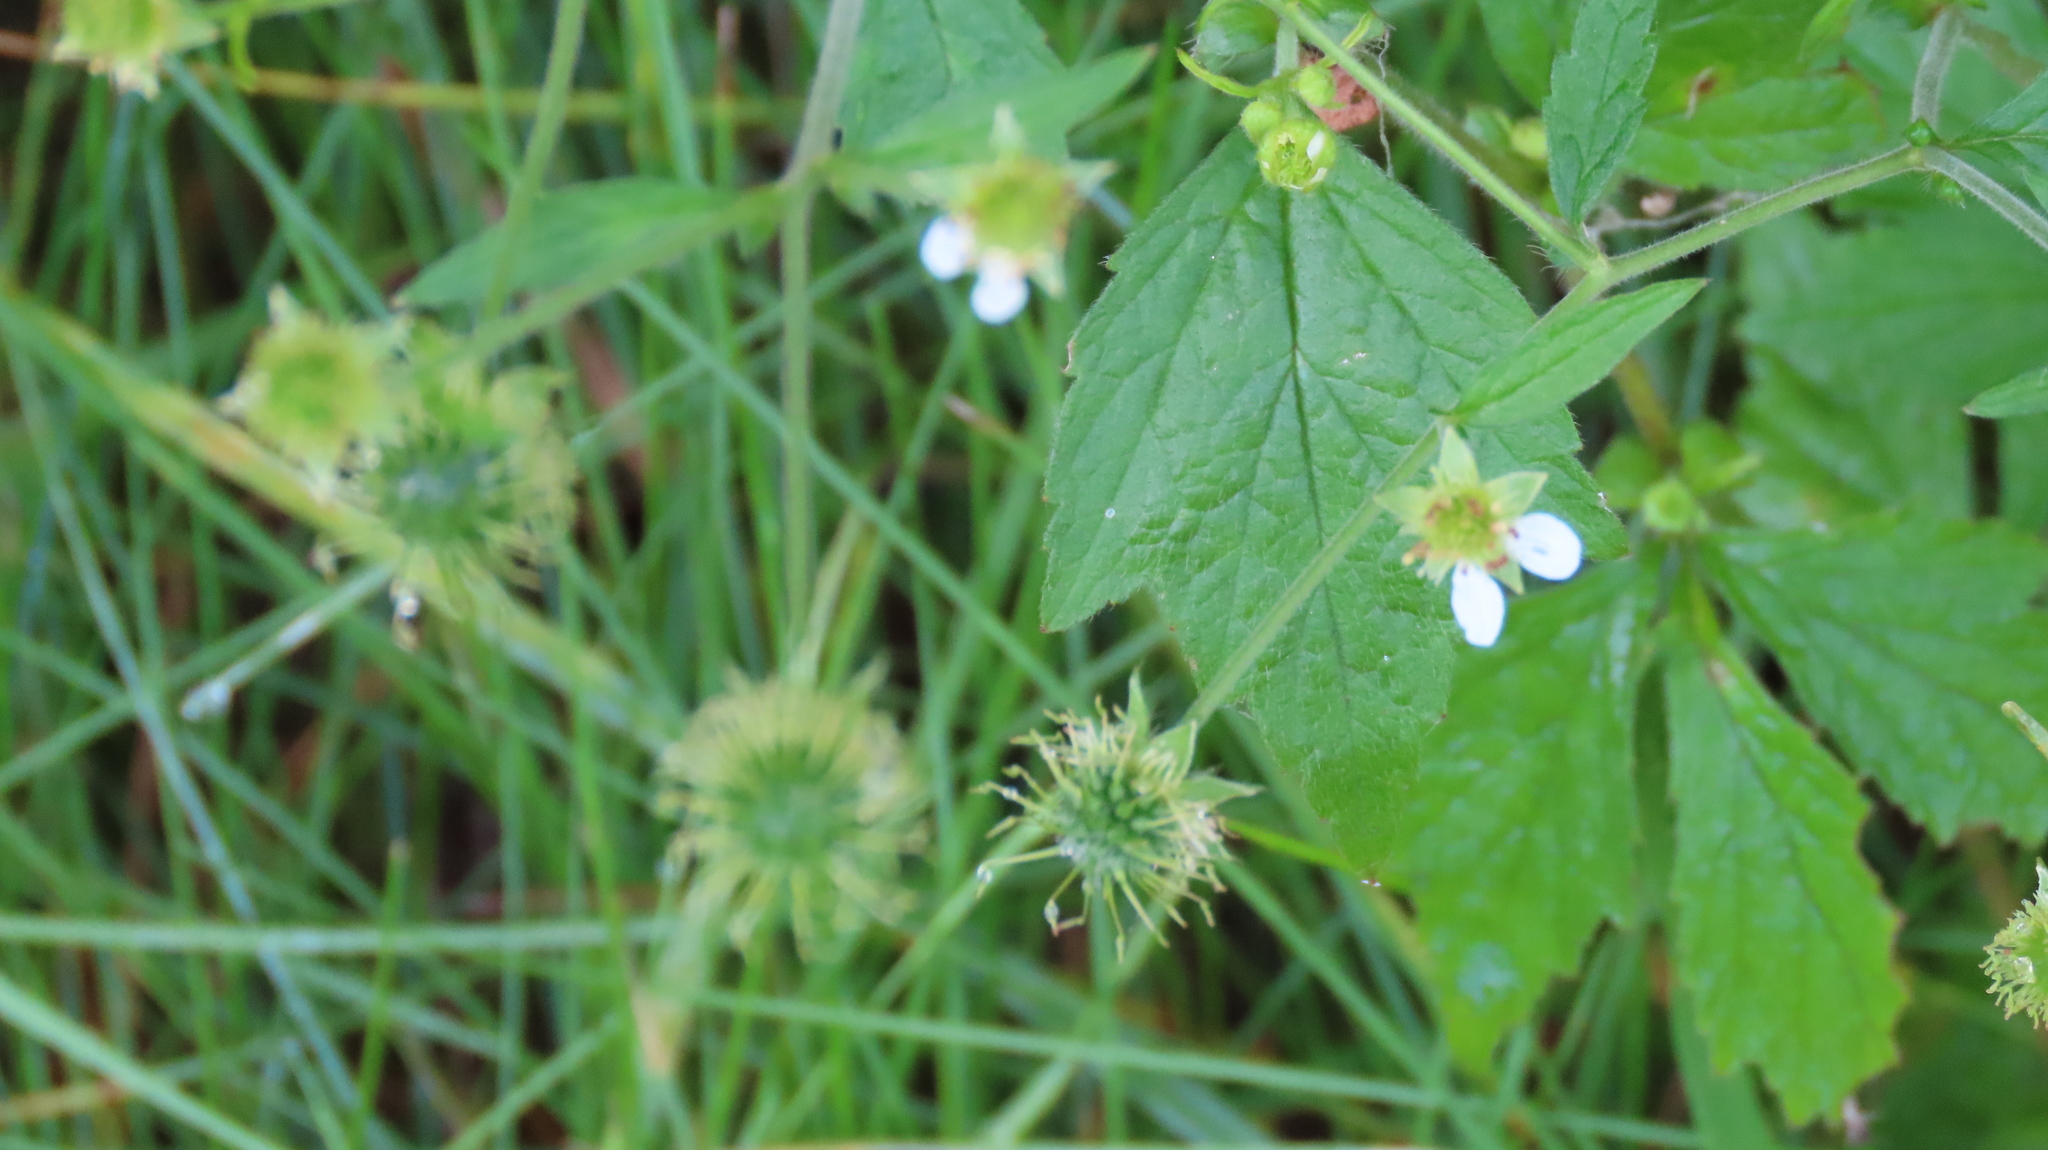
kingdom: Plantae
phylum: Tracheophyta
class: Magnoliopsida
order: Rosales
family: Rosaceae
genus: Geum
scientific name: Geum canadense
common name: White avens
